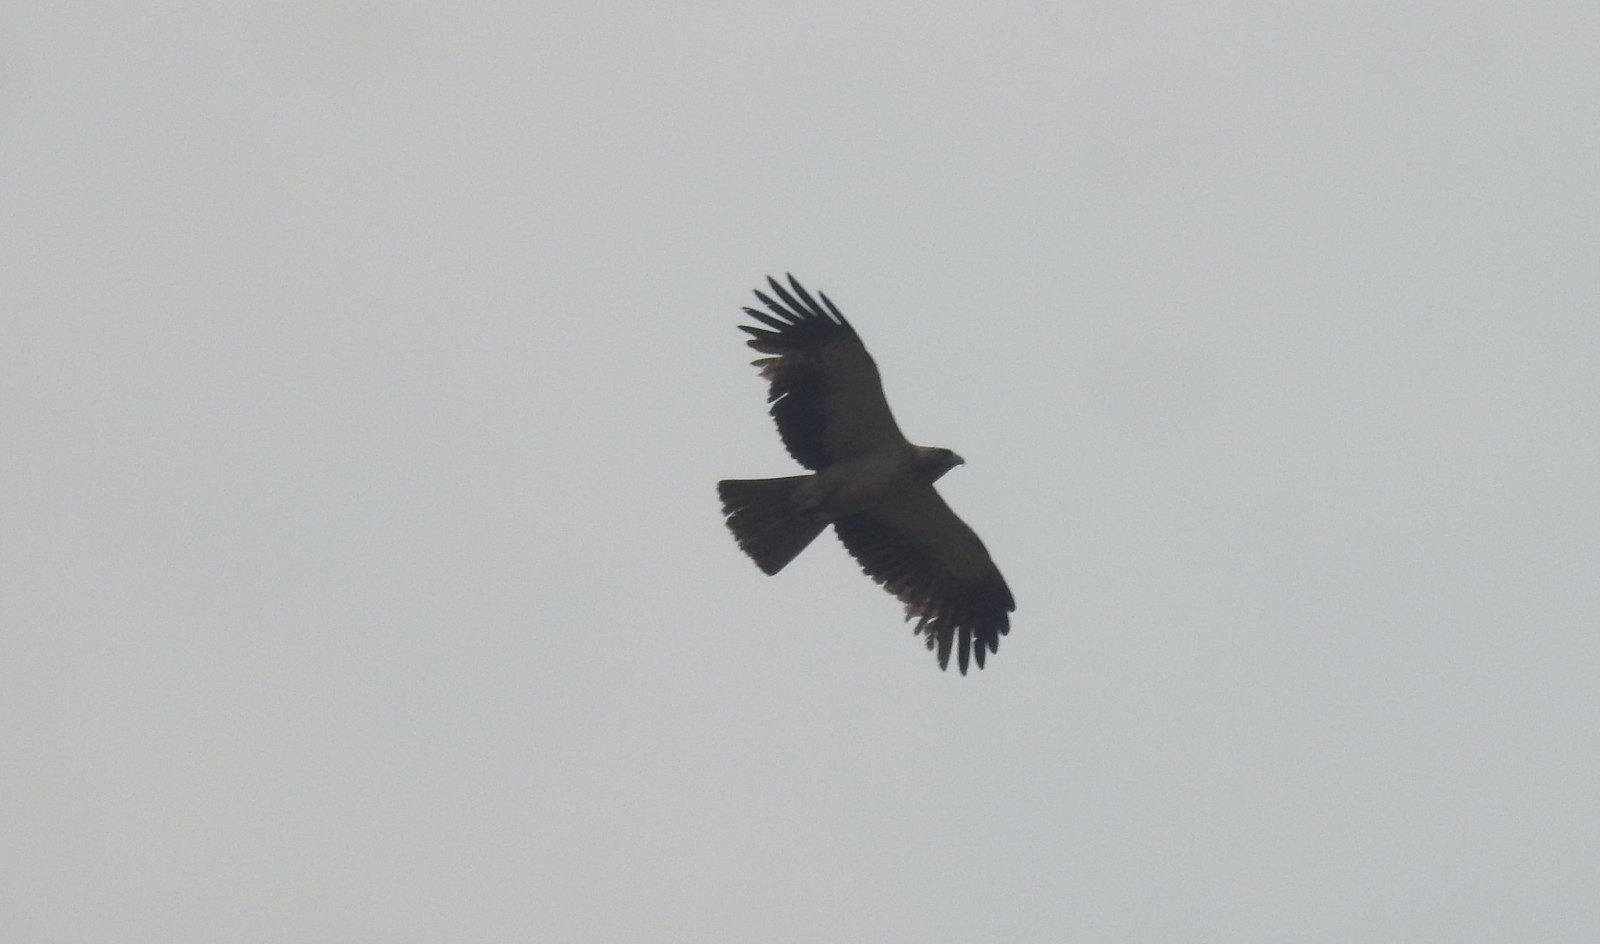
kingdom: Animalia
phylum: Chordata
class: Aves
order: Accipitriformes
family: Accipitridae
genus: Hieraaetus
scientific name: Hieraaetus pennatus
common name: Booted eagle
